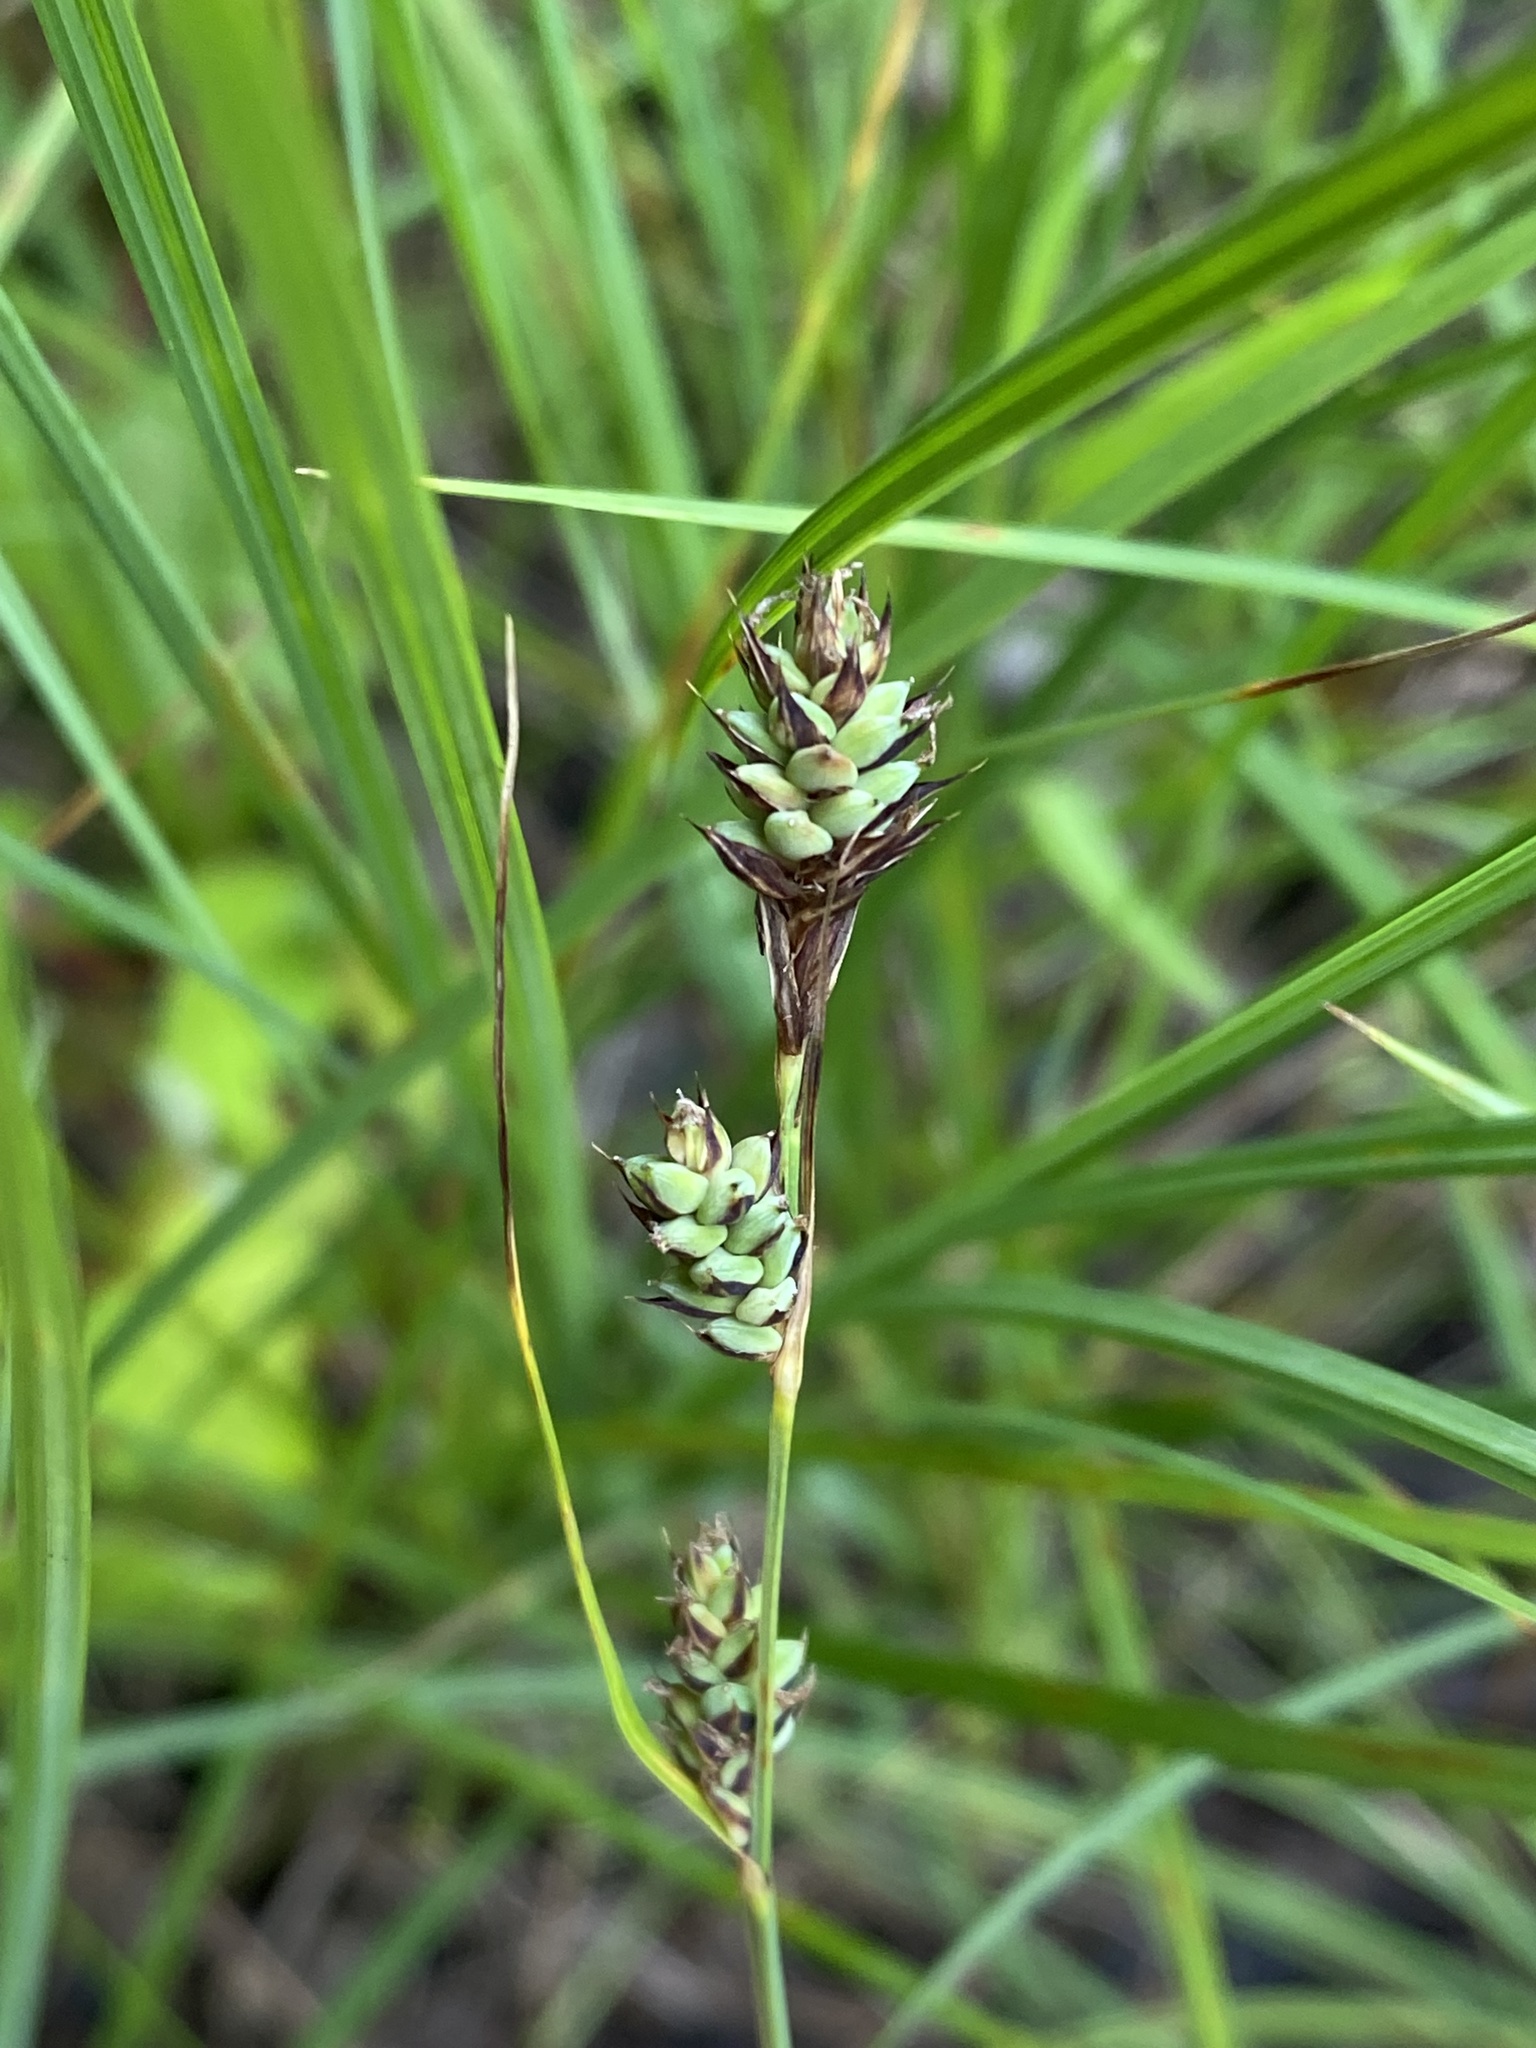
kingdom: Plantae
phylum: Tracheophyta
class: Liliopsida
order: Poales
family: Cyperaceae
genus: Carex
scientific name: Carex buxbaumii
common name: Club sedge
